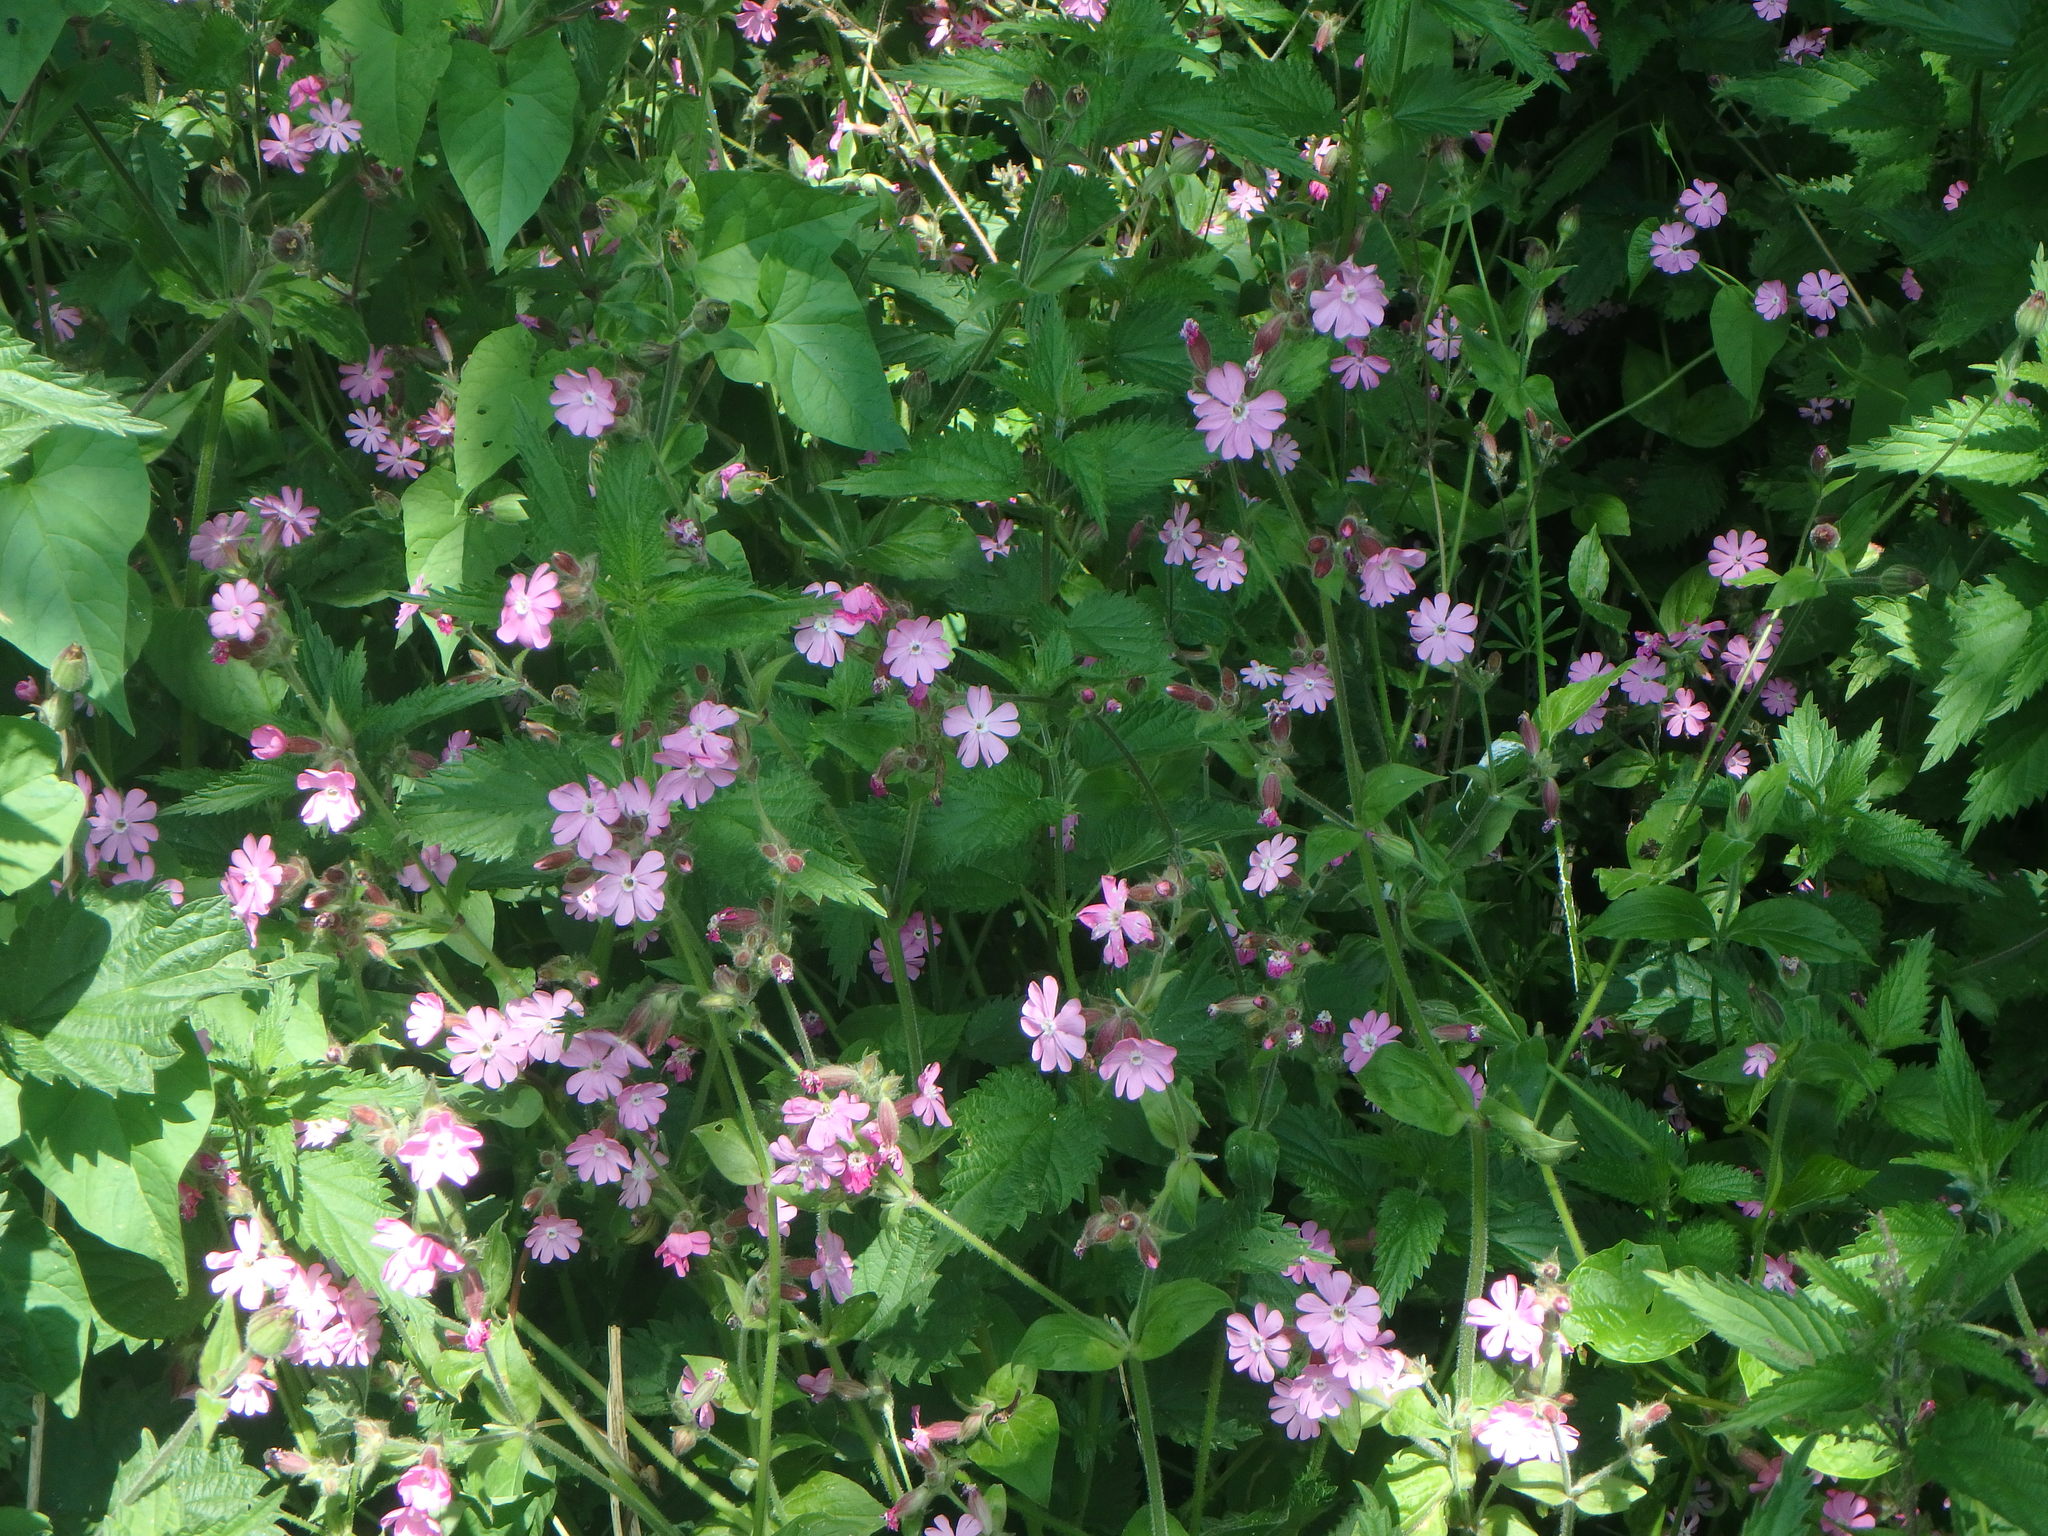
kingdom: Plantae
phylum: Tracheophyta
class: Magnoliopsida
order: Caryophyllales
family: Caryophyllaceae
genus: Silene
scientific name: Silene dioica
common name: Red campion
